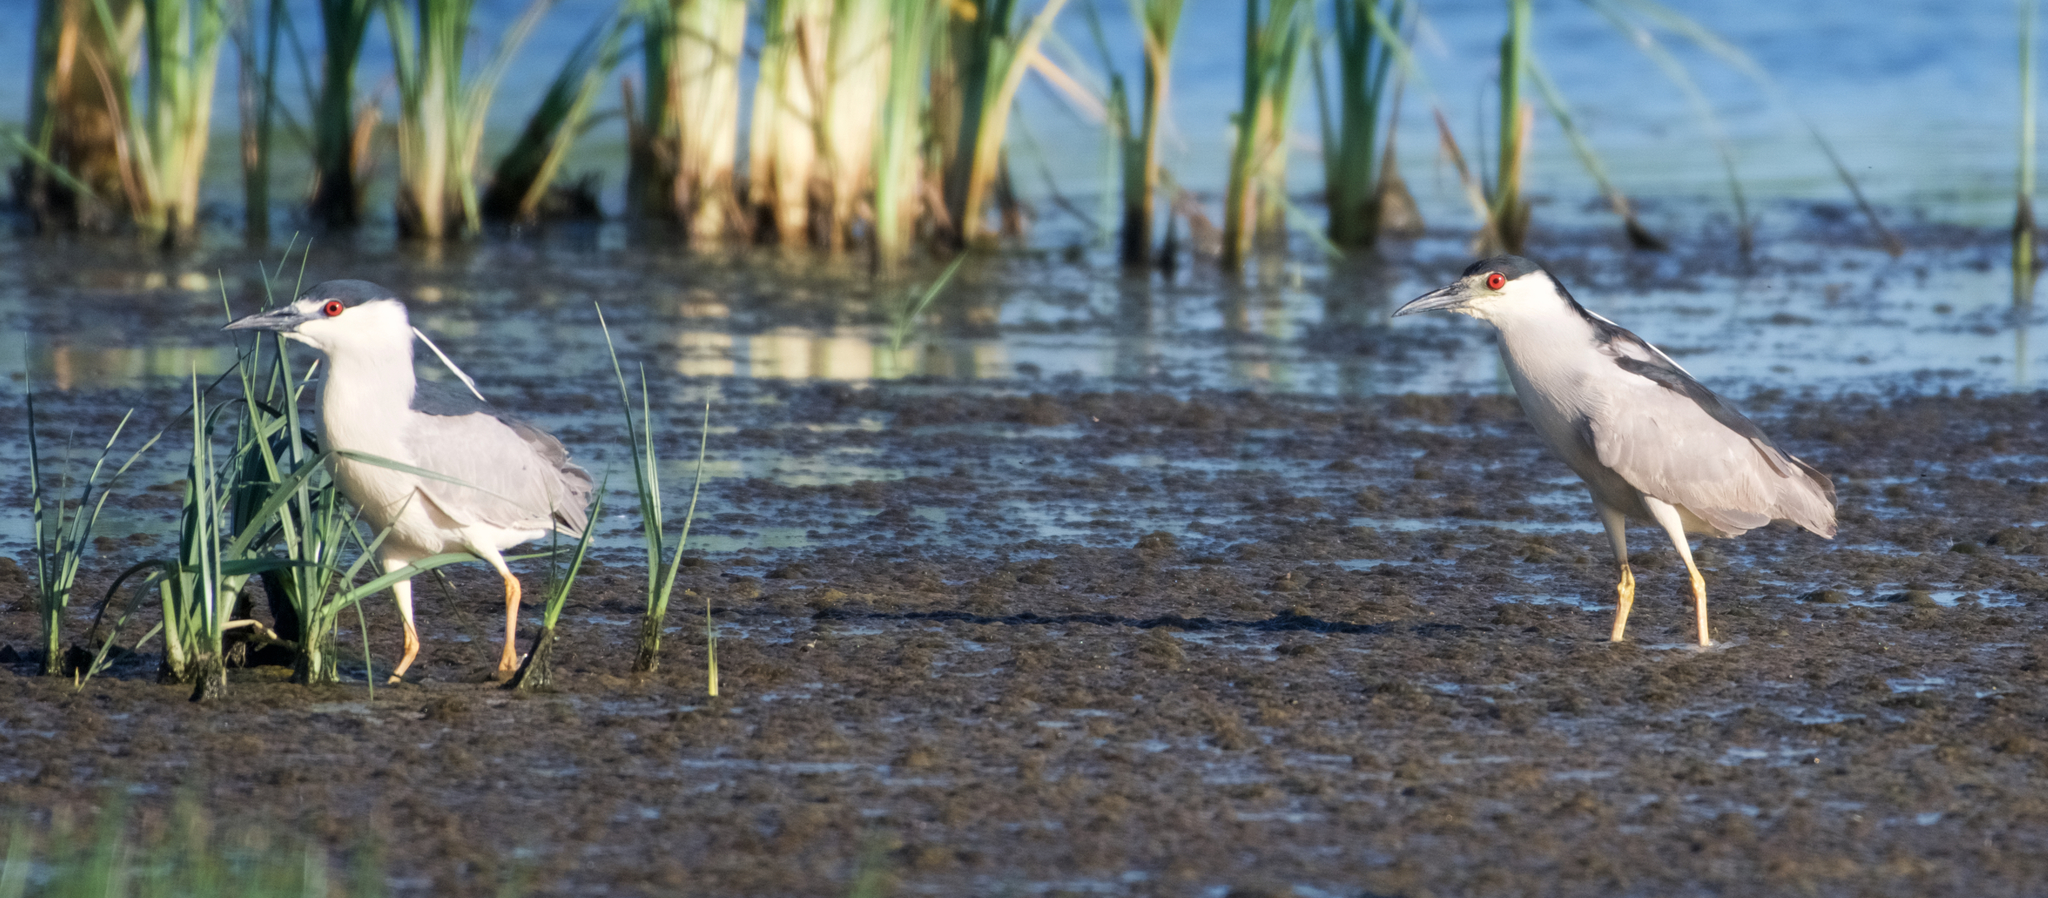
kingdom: Animalia
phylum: Chordata
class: Aves
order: Pelecaniformes
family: Ardeidae
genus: Nycticorax
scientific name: Nycticorax nycticorax
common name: Black-crowned night heron
